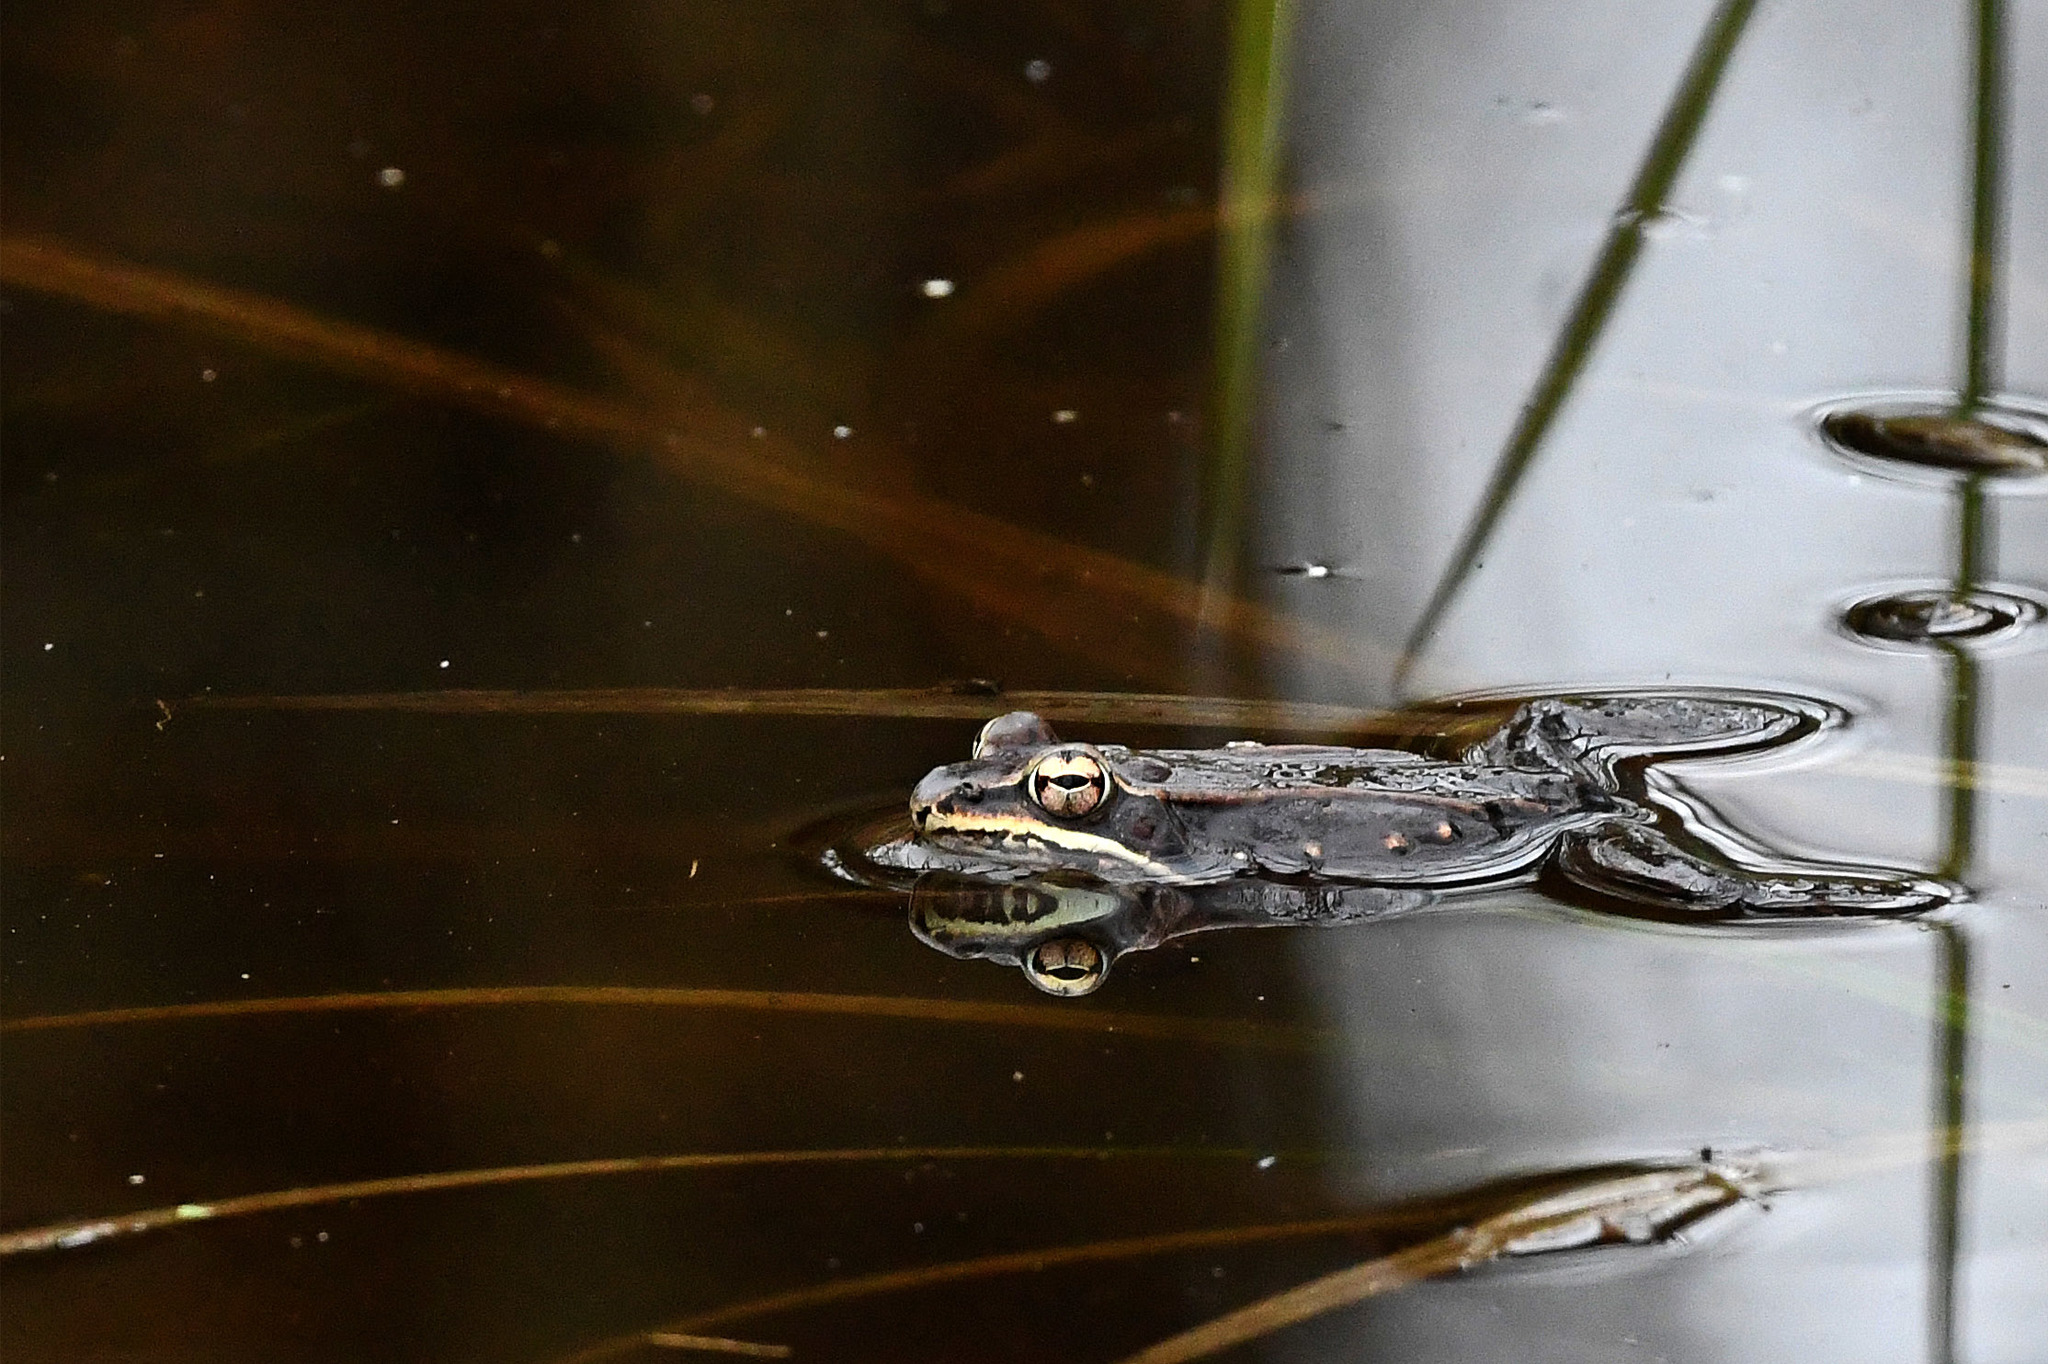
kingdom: Animalia
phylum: Chordata
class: Amphibia
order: Anura
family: Ranidae
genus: Lithobates
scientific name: Lithobates sylvaticus
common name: Wood frog
